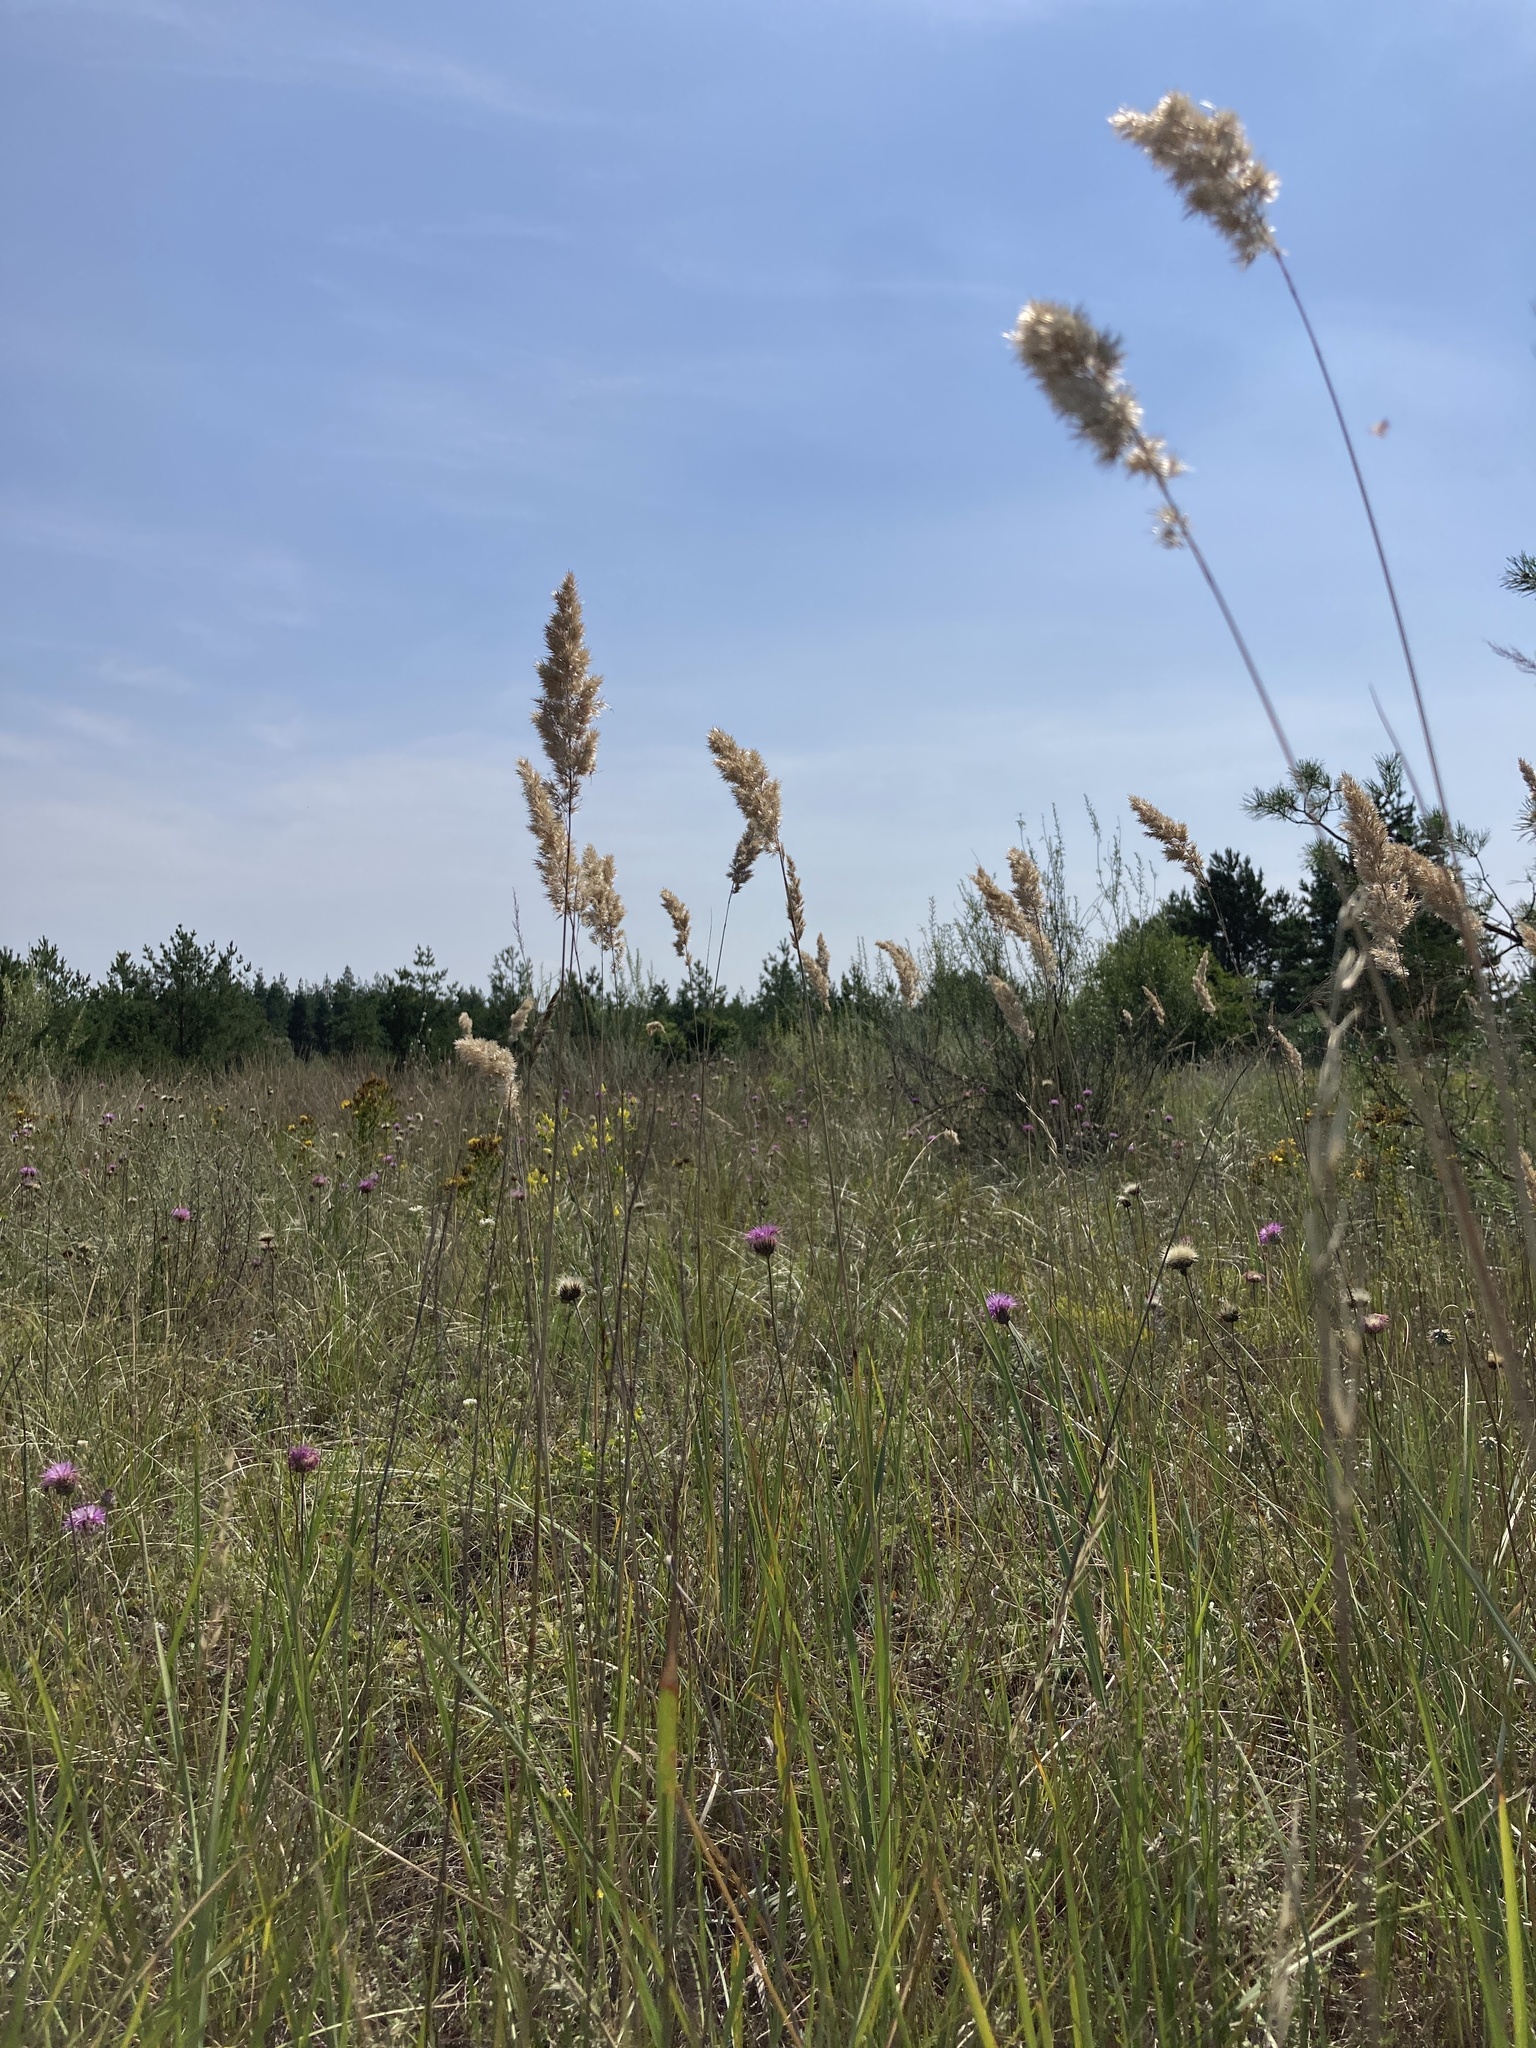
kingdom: Plantae
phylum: Tracheophyta
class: Liliopsida
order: Poales
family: Poaceae
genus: Calamagrostis
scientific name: Calamagrostis epigejos
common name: Wood small-reed
